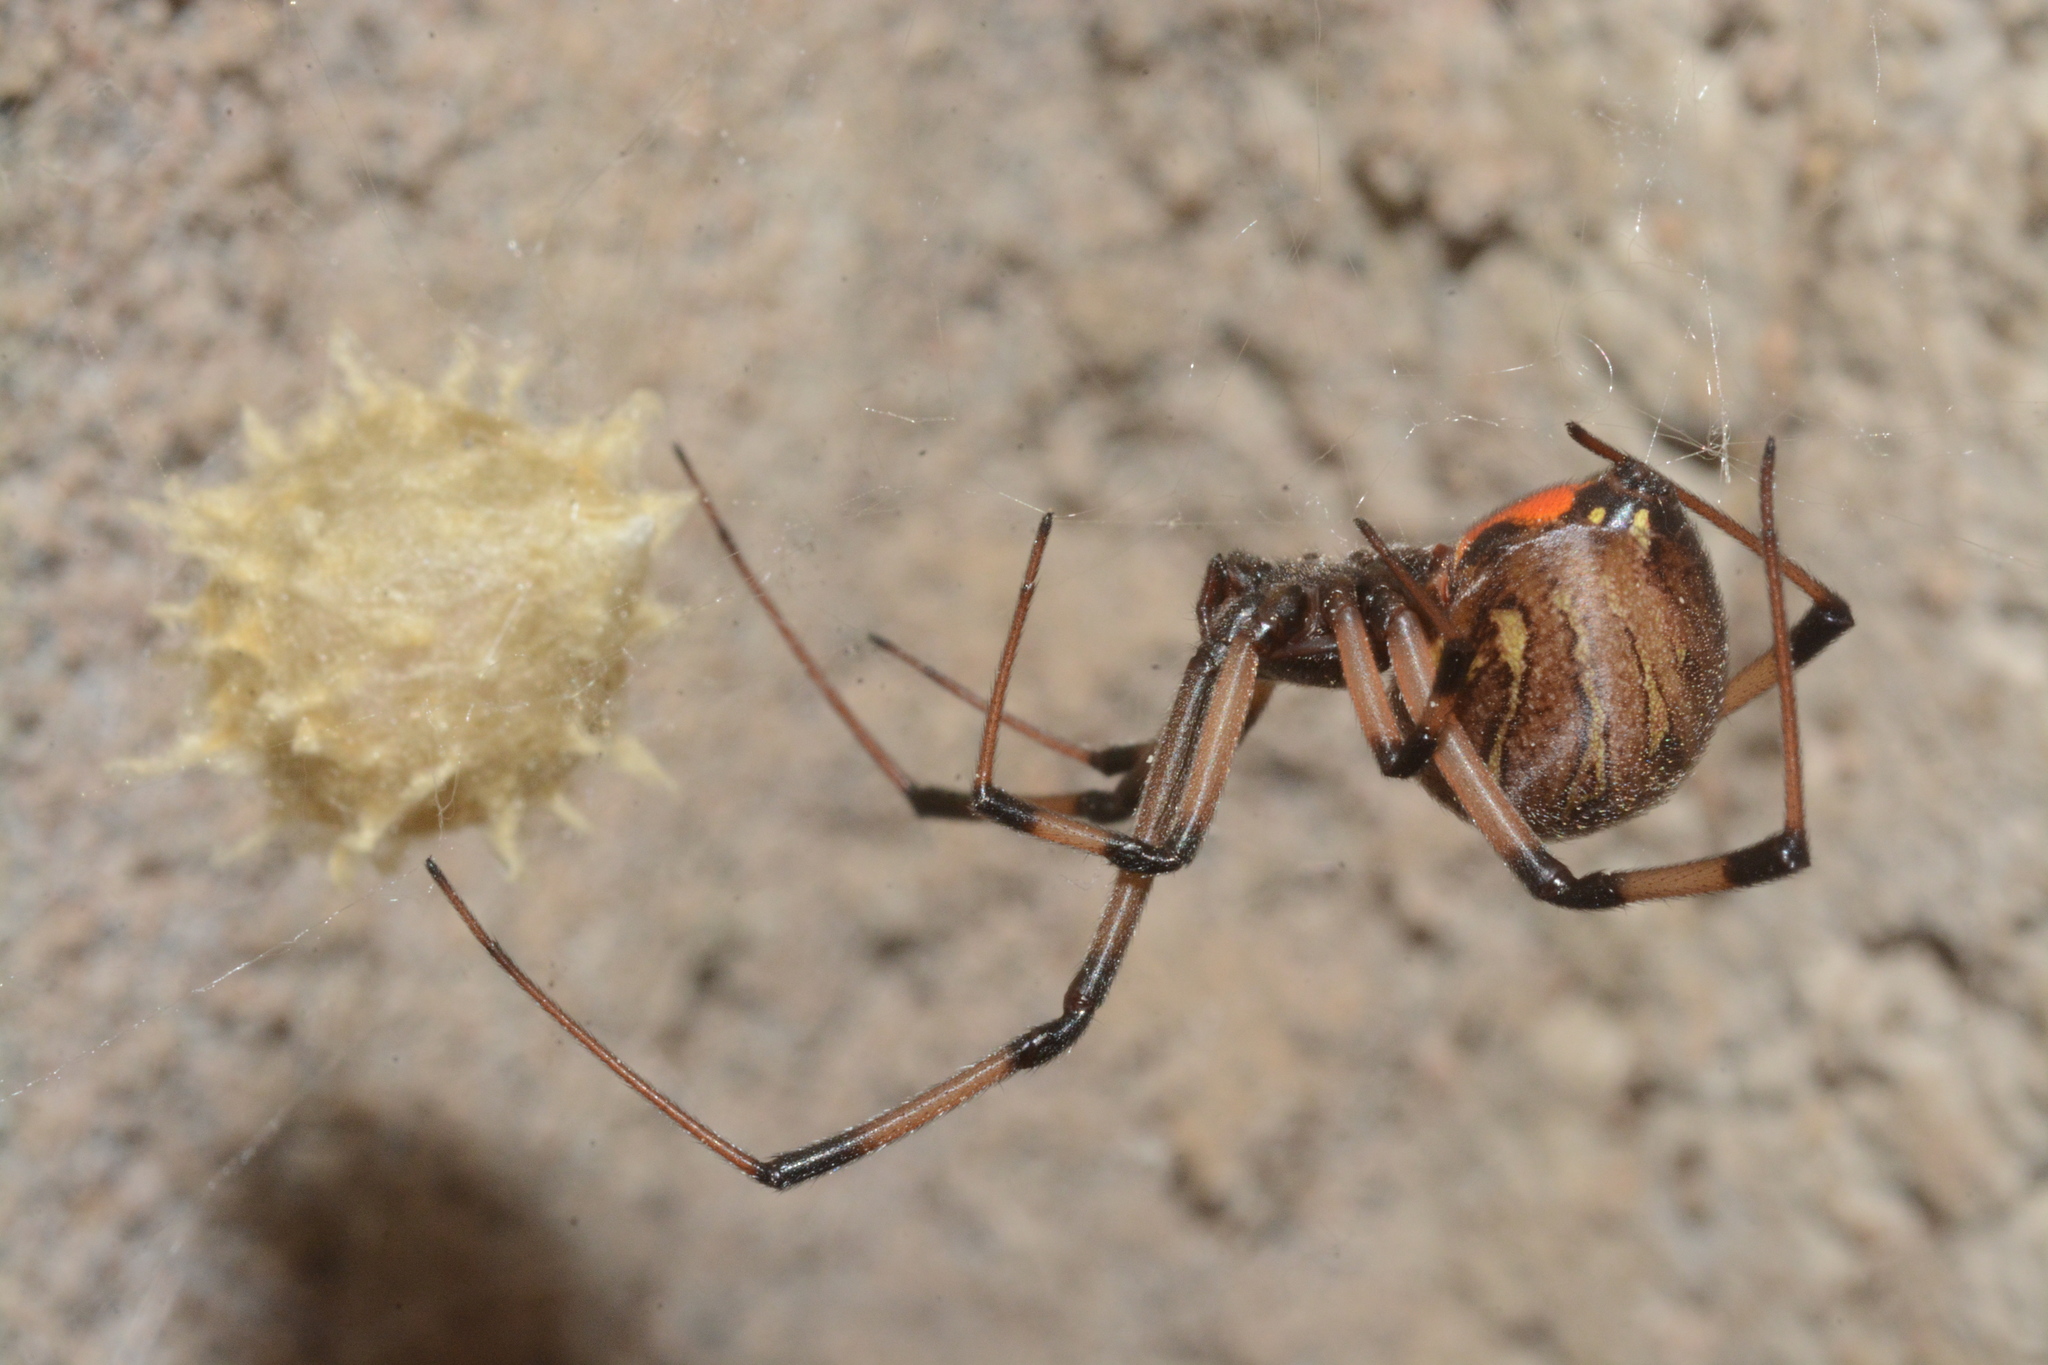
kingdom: Animalia
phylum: Arthropoda
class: Arachnida
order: Araneae
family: Theridiidae
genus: Latrodectus
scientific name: Latrodectus geometricus
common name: Brown widow spider
